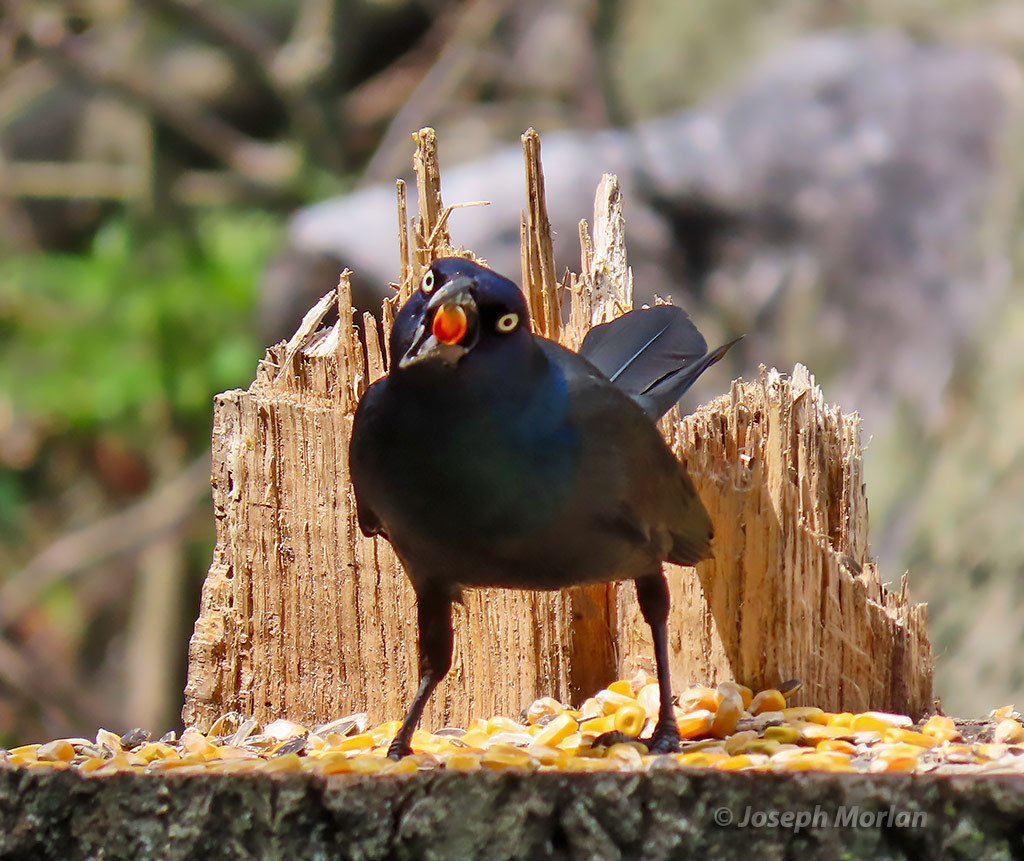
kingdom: Animalia
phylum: Chordata
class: Aves
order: Passeriformes
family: Icteridae
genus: Quiscalus
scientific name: Quiscalus quiscula
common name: Common grackle
